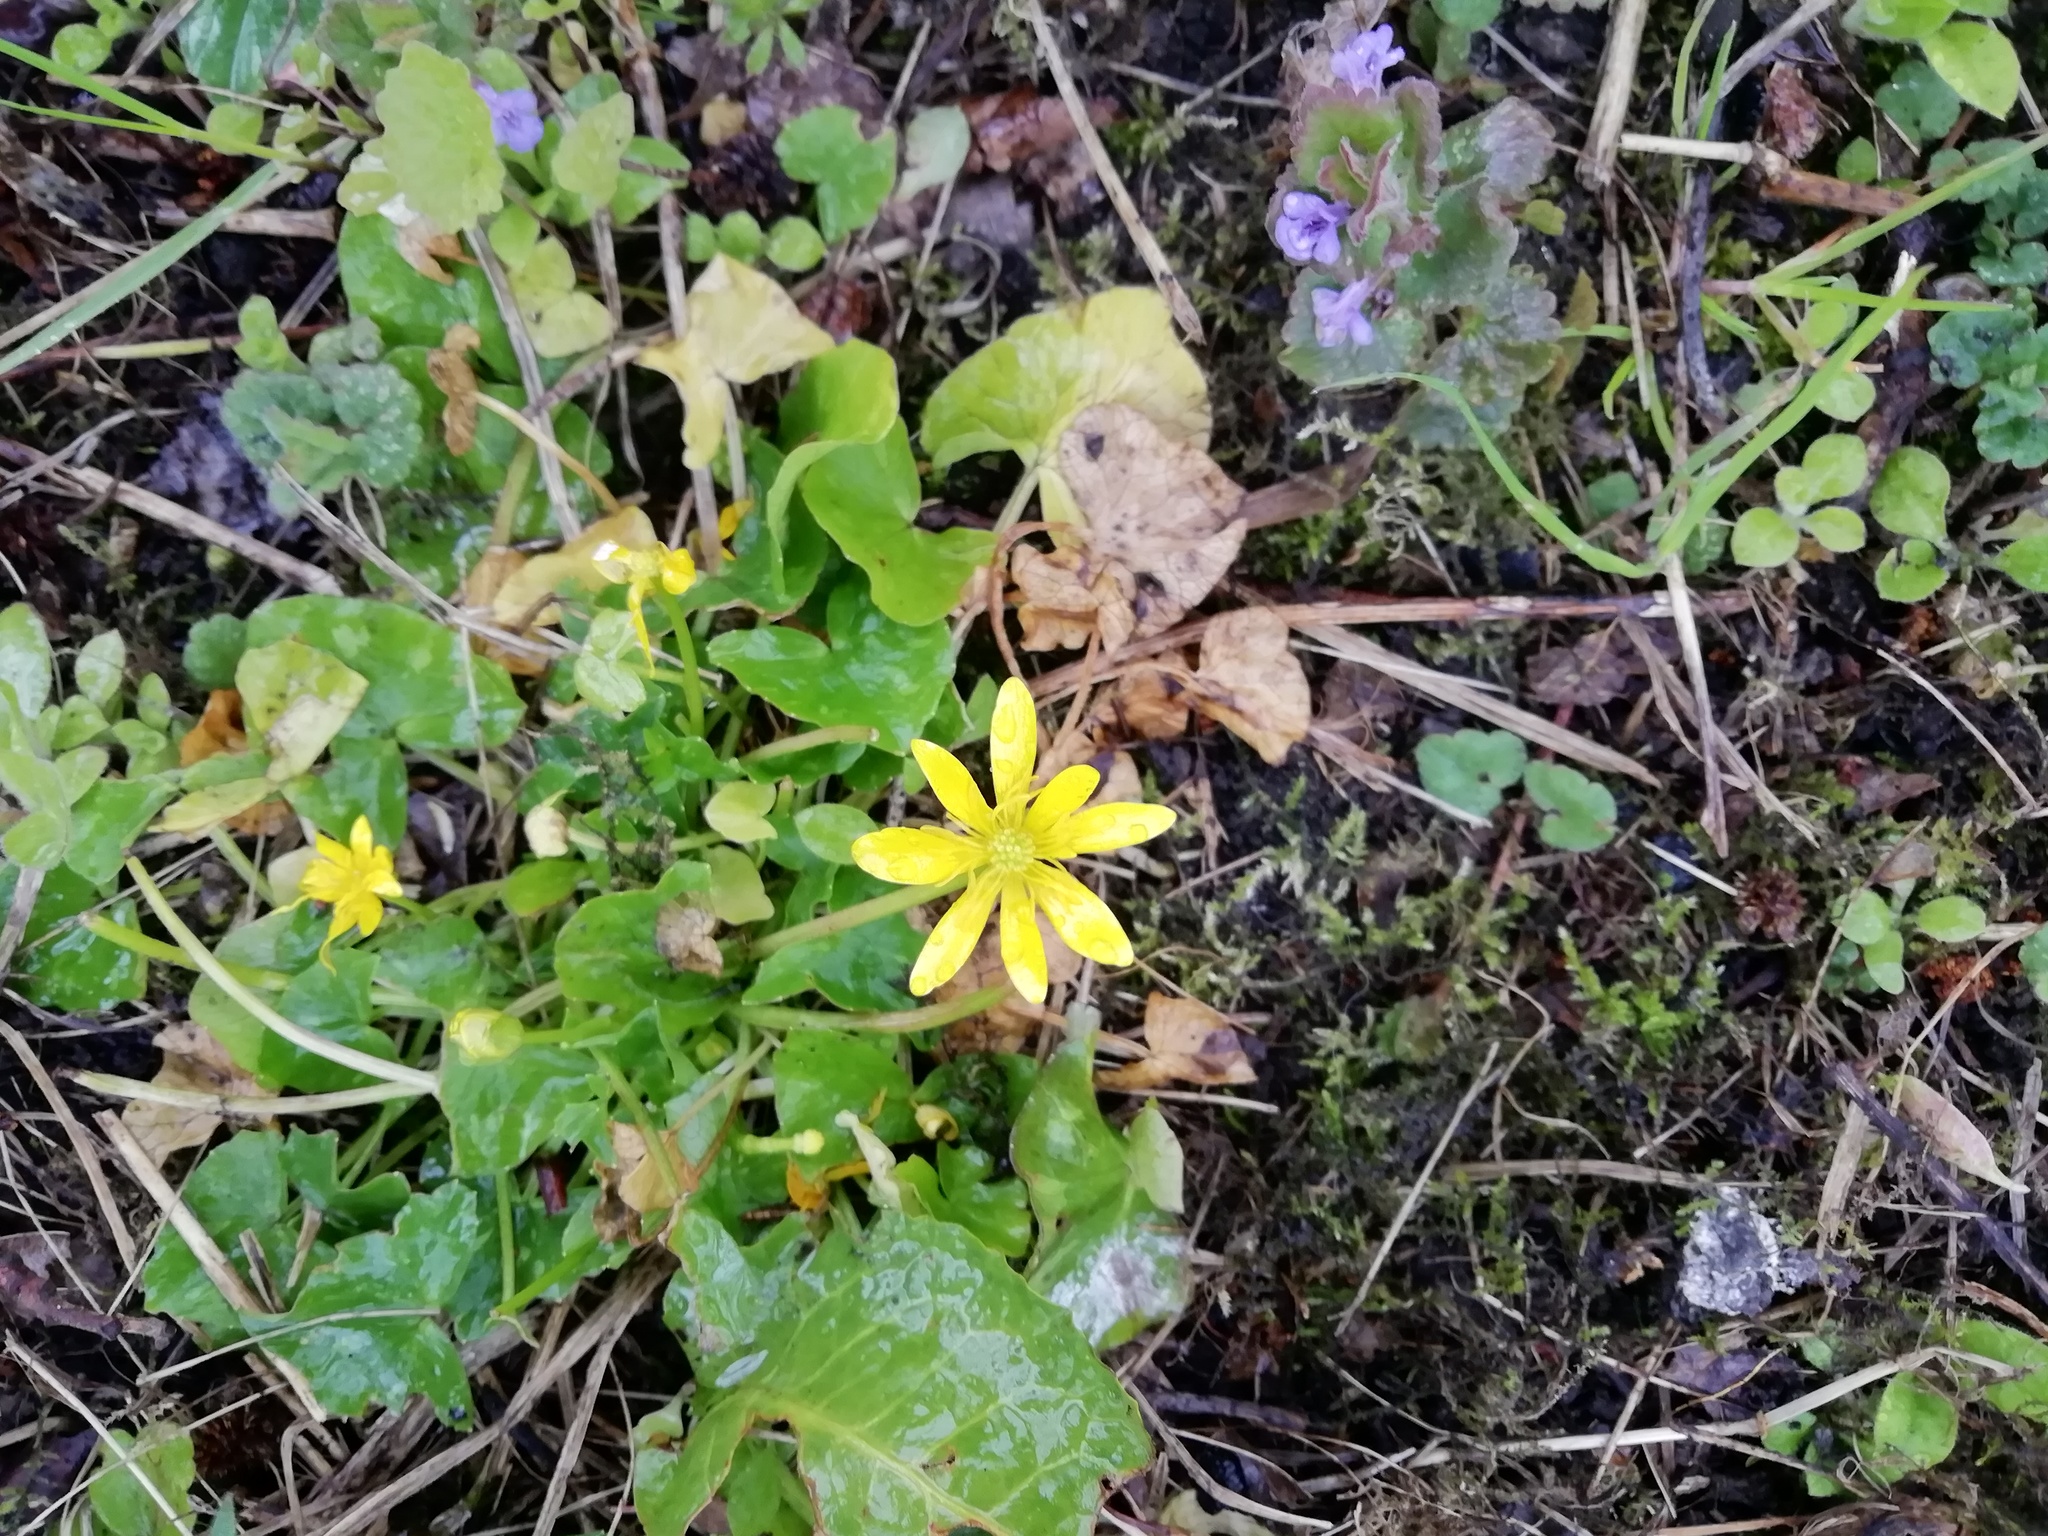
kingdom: Plantae
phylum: Tracheophyta
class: Magnoliopsida
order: Ranunculales
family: Ranunculaceae
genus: Ficaria
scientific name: Ficaria verna
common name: Lesser celandine
